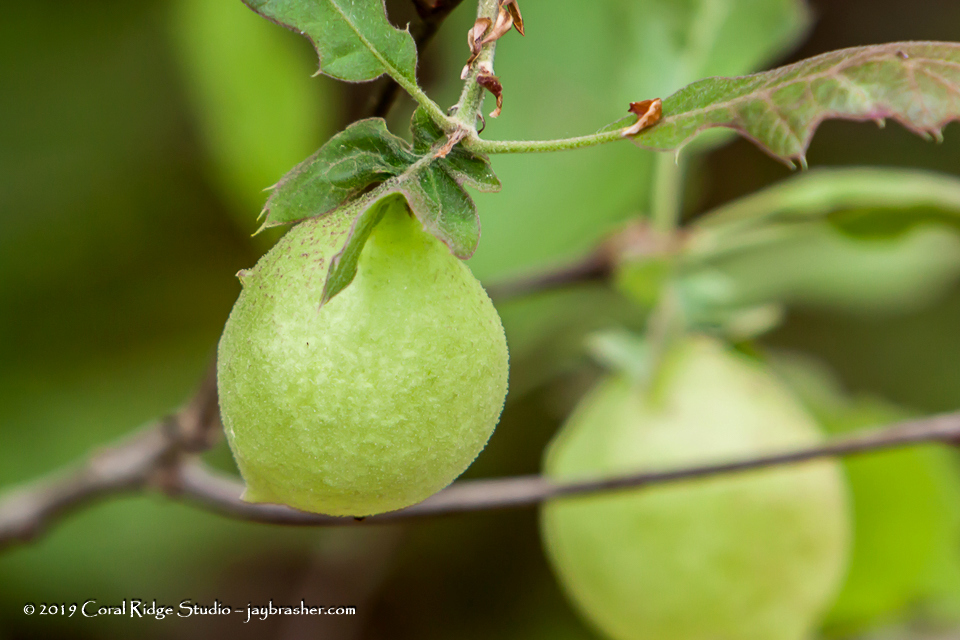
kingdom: Animalia
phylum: Arthropoda
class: Insecta
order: Hymenoptera
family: Cynipidae
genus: Amphibolips
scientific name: Amphibolips
